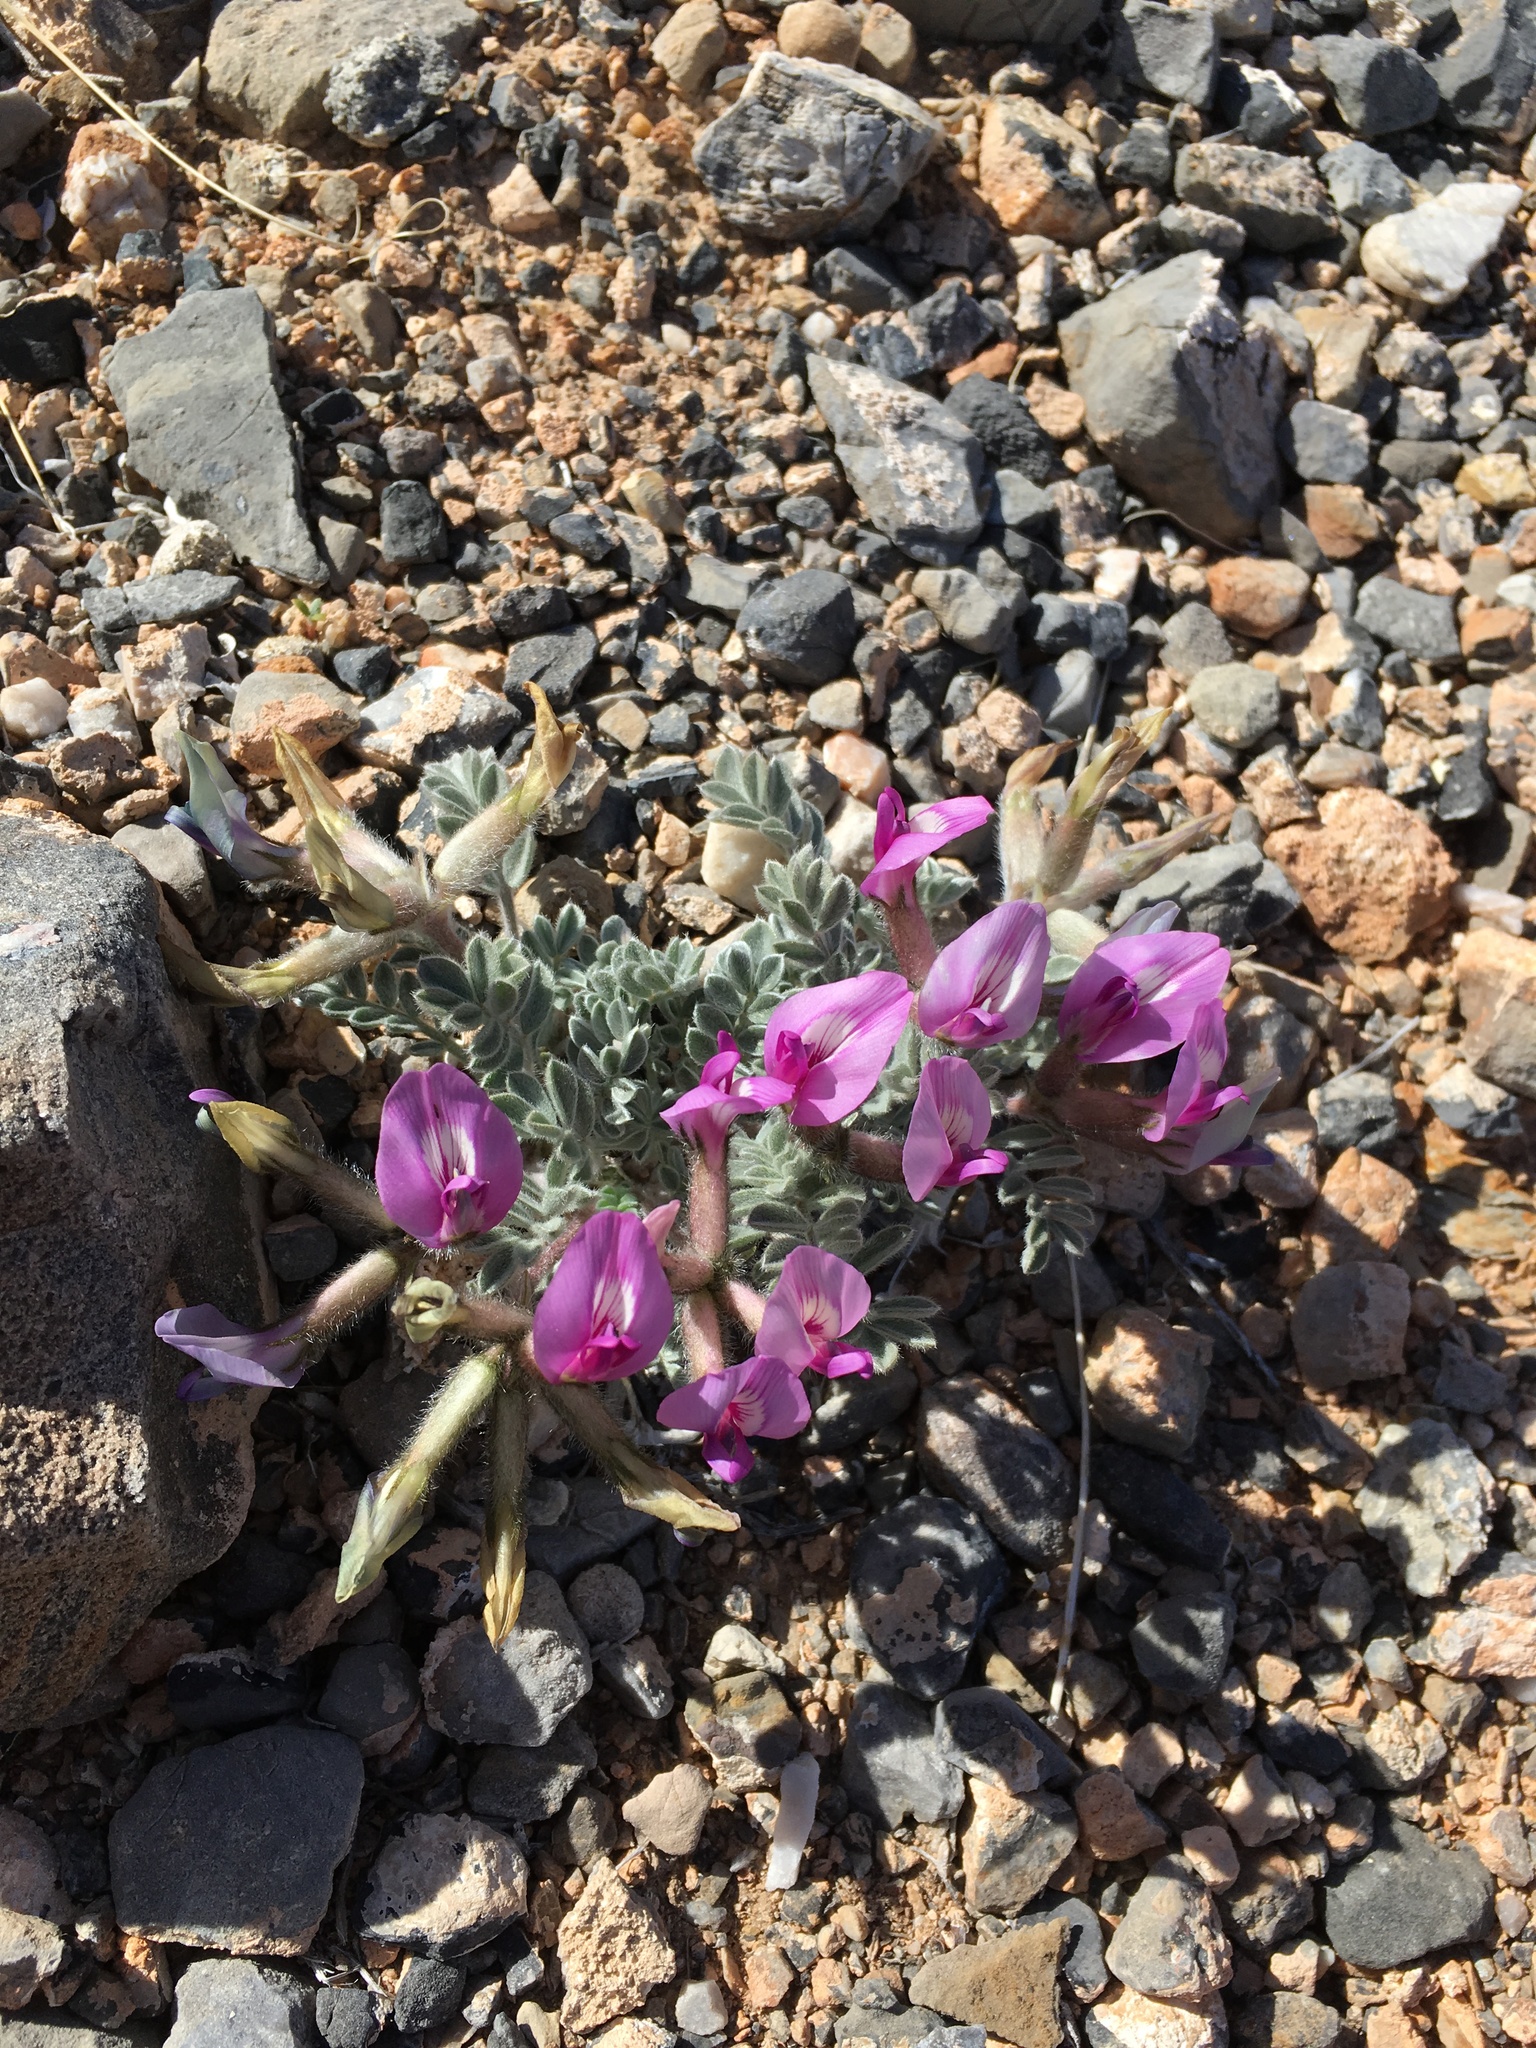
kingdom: Plantae
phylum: Tracheophyta
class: Magnoliopsida
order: Fabales
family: Fabaceae
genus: Astragalus
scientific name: Astragalus newberryi
